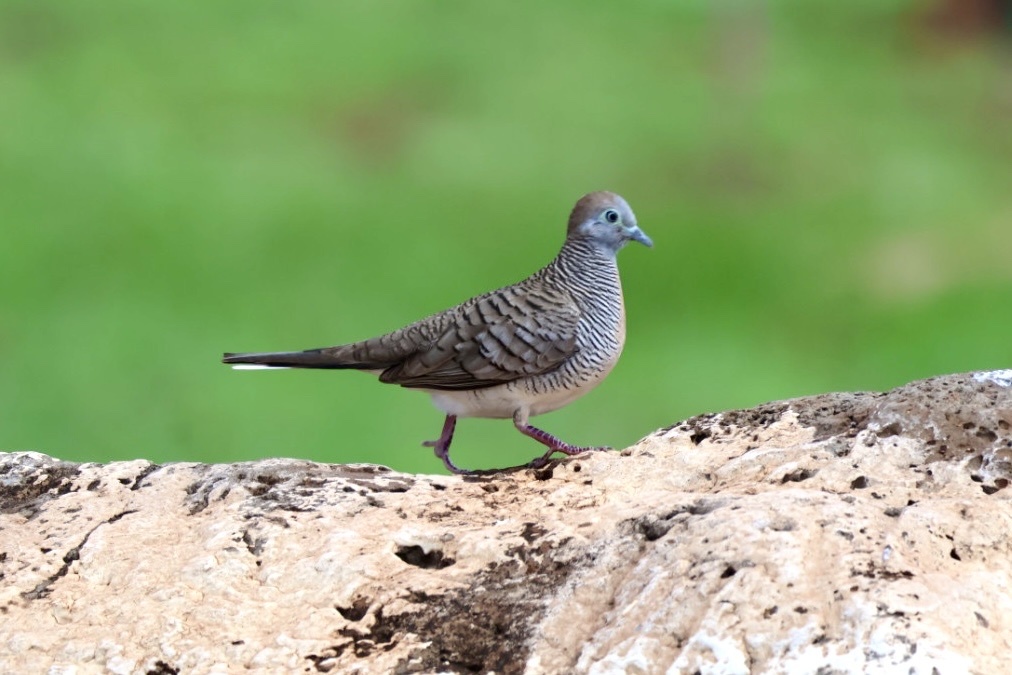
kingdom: Animalia
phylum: Chordata
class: Aves
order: Columbiformes
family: Columbidae
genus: Geopelia
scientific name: Geopelia striata
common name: Zebra dove
